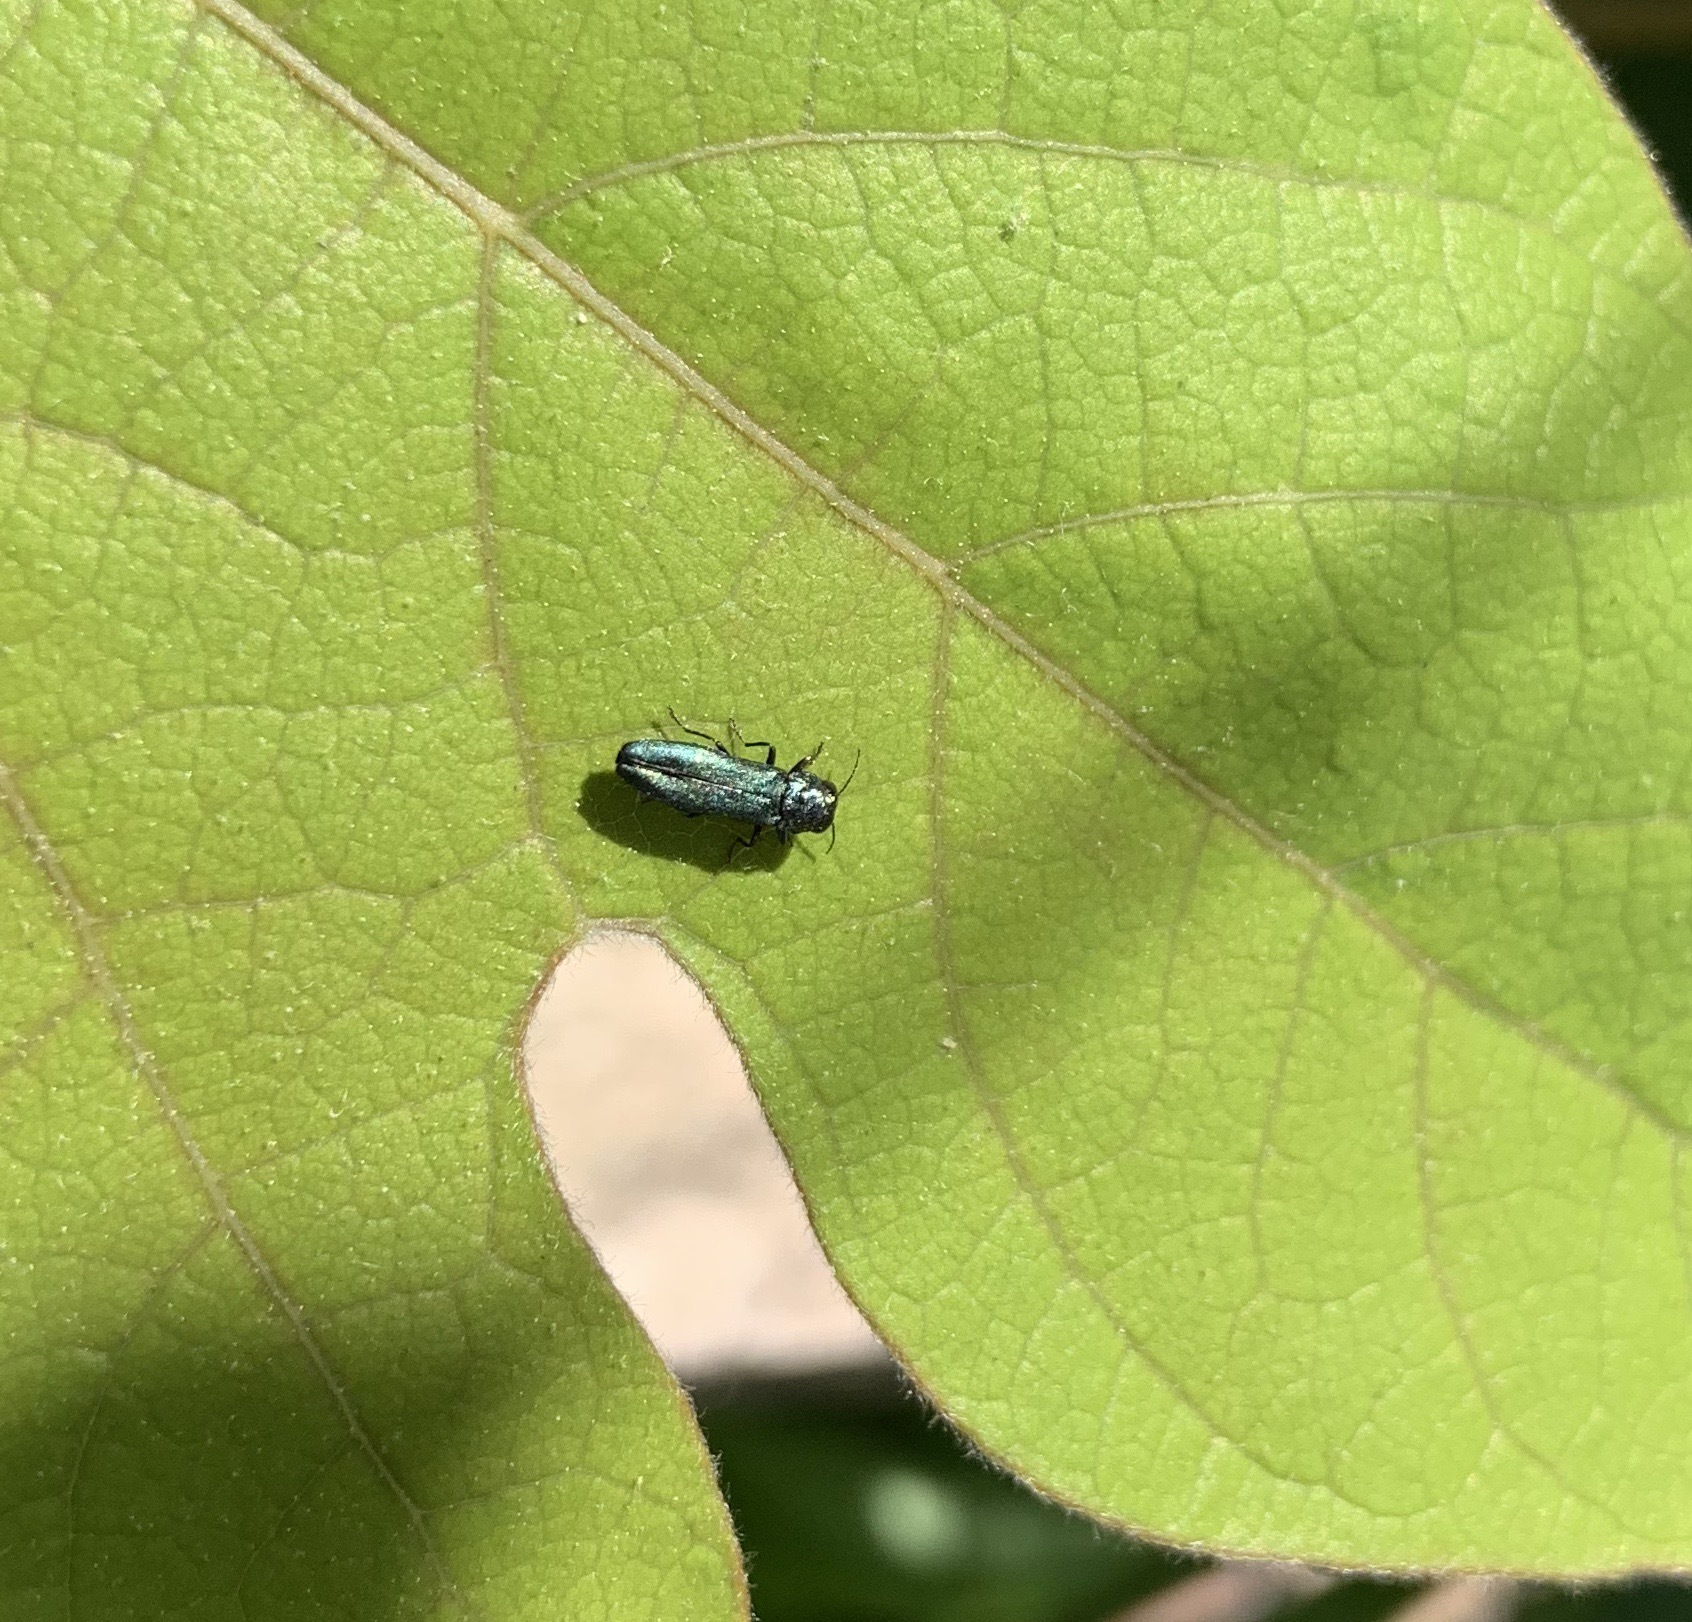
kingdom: Animalia
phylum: Arthropoda
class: Insecta
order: Coleoptera
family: Buprestidae
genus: Agrilus
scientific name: Agrilus cyanescens
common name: Bluish borer beetle
